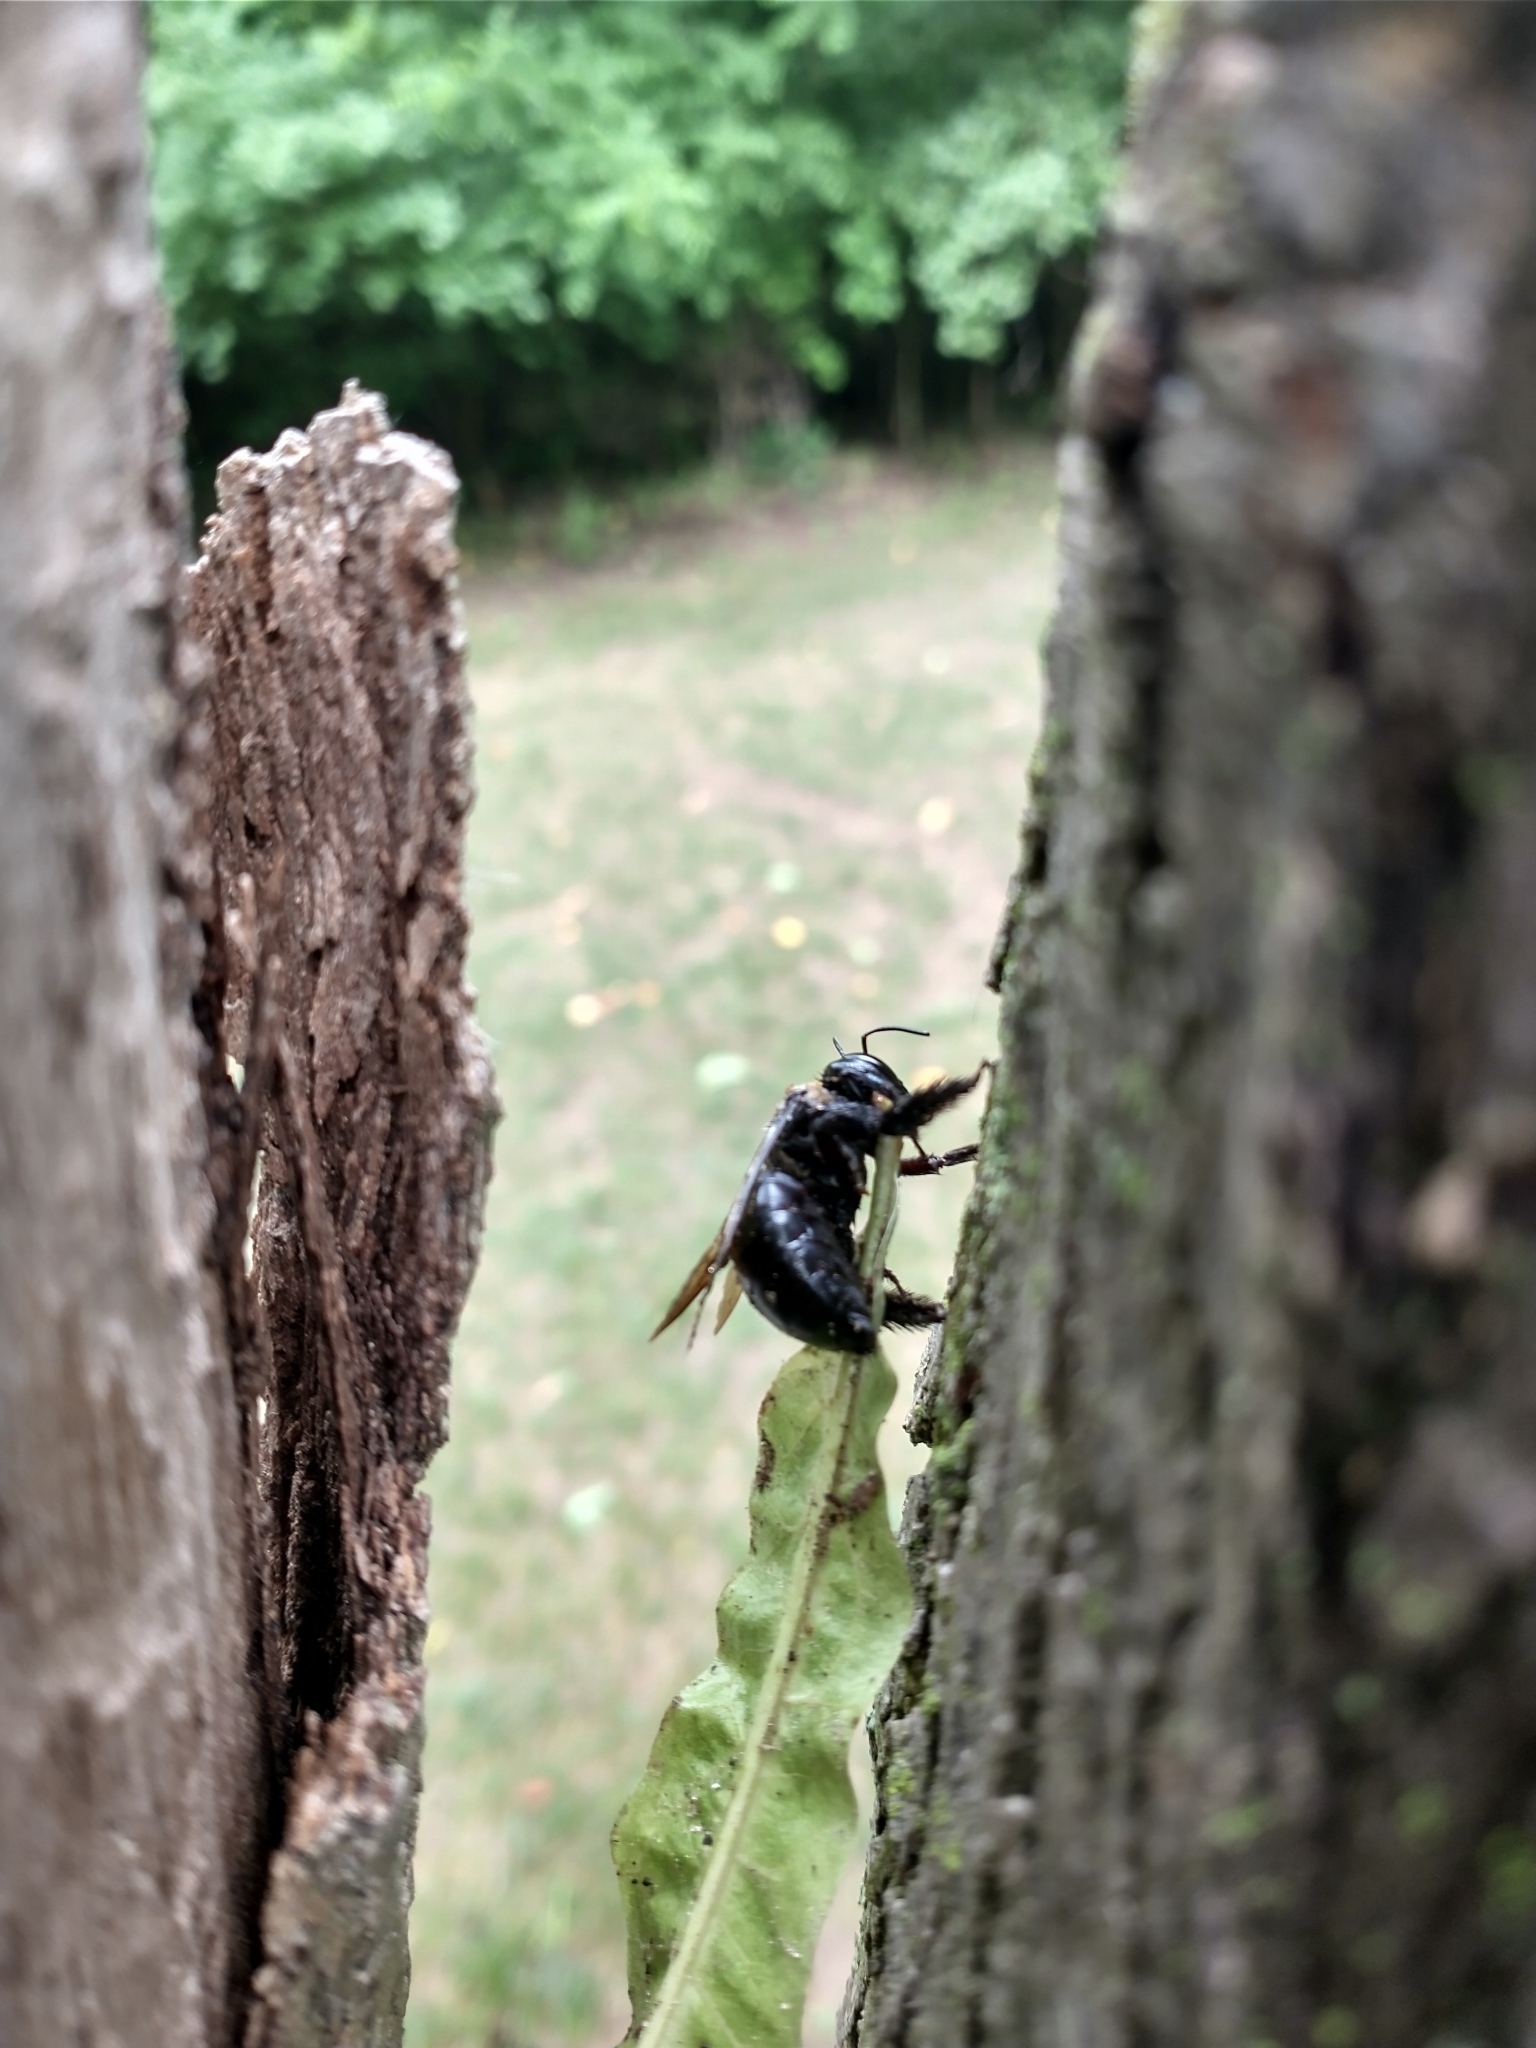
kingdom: Animalia
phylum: Arthropoda
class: Insecta
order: Hymenoptera
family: Apidae
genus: Xylocopa
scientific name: Xylocopa virginica
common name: Carpenter bee
